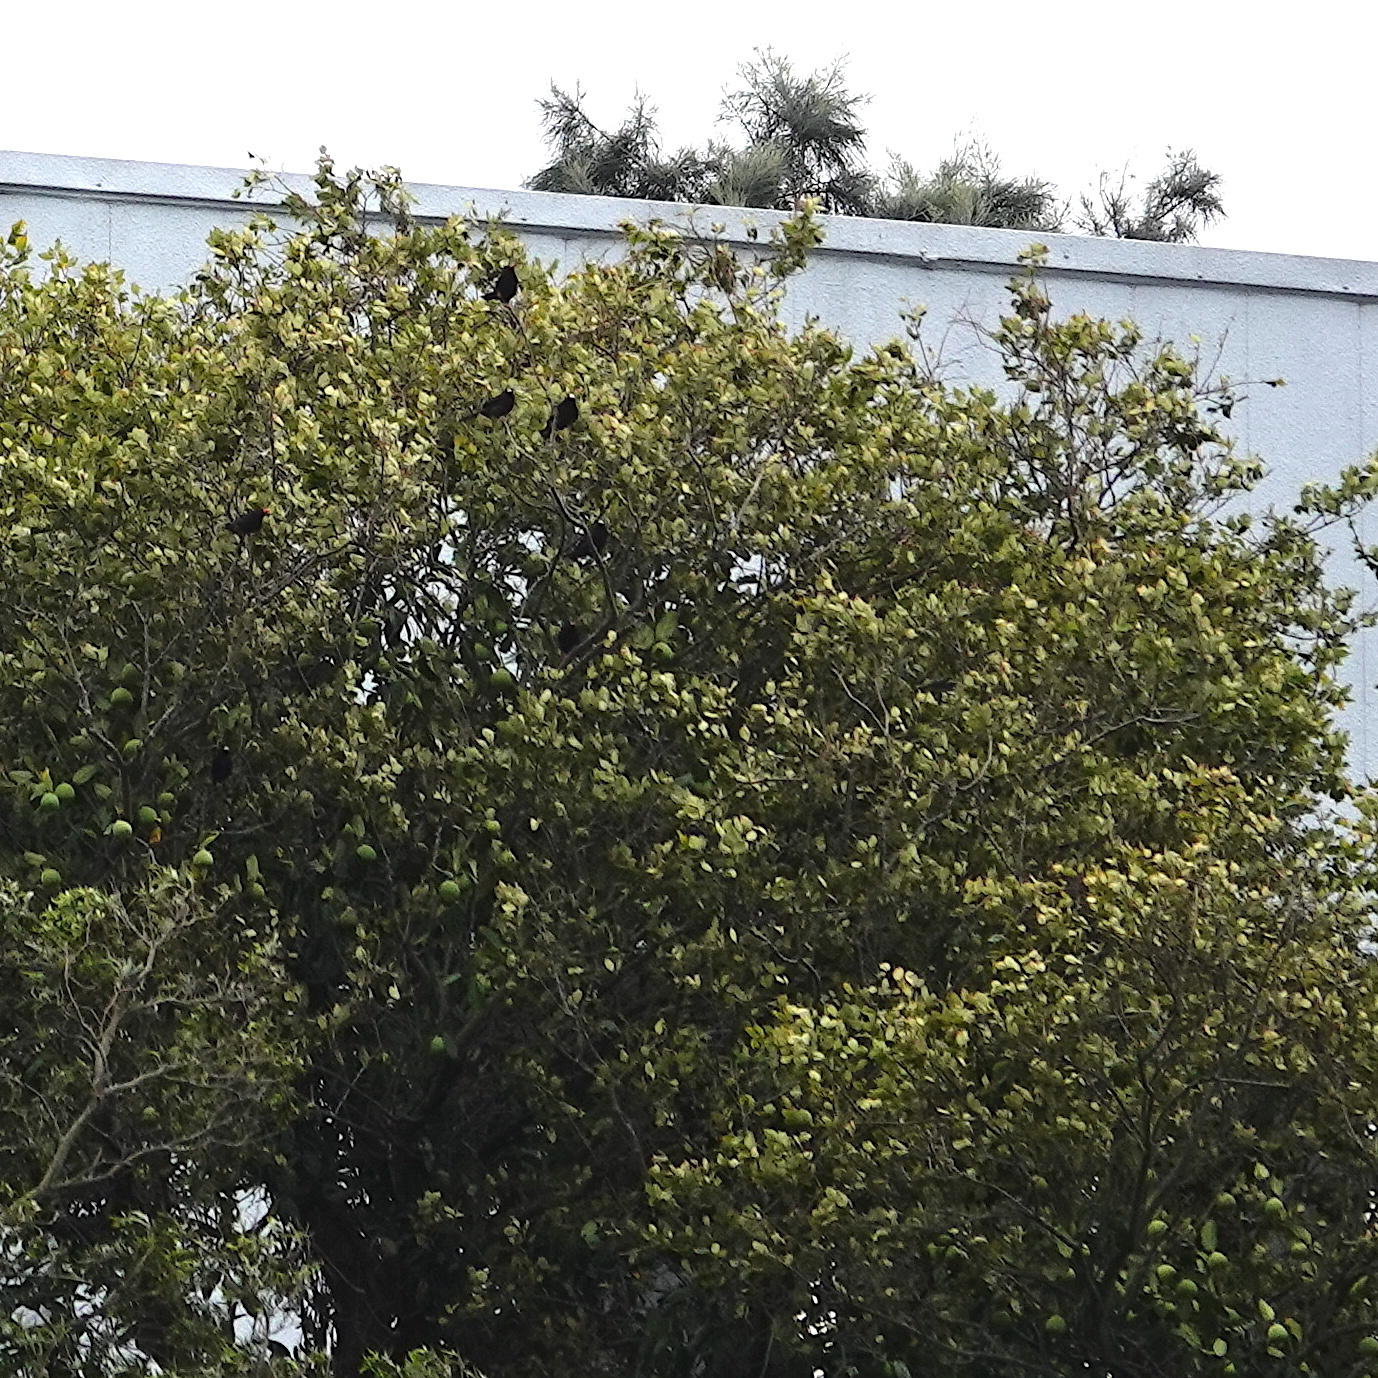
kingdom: Animalia
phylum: Chordata
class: Aves
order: Passeriformes
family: Pycnonotidae
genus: Hypsipetes
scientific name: Hypsipetes leucocephalus
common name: Black bulbul
